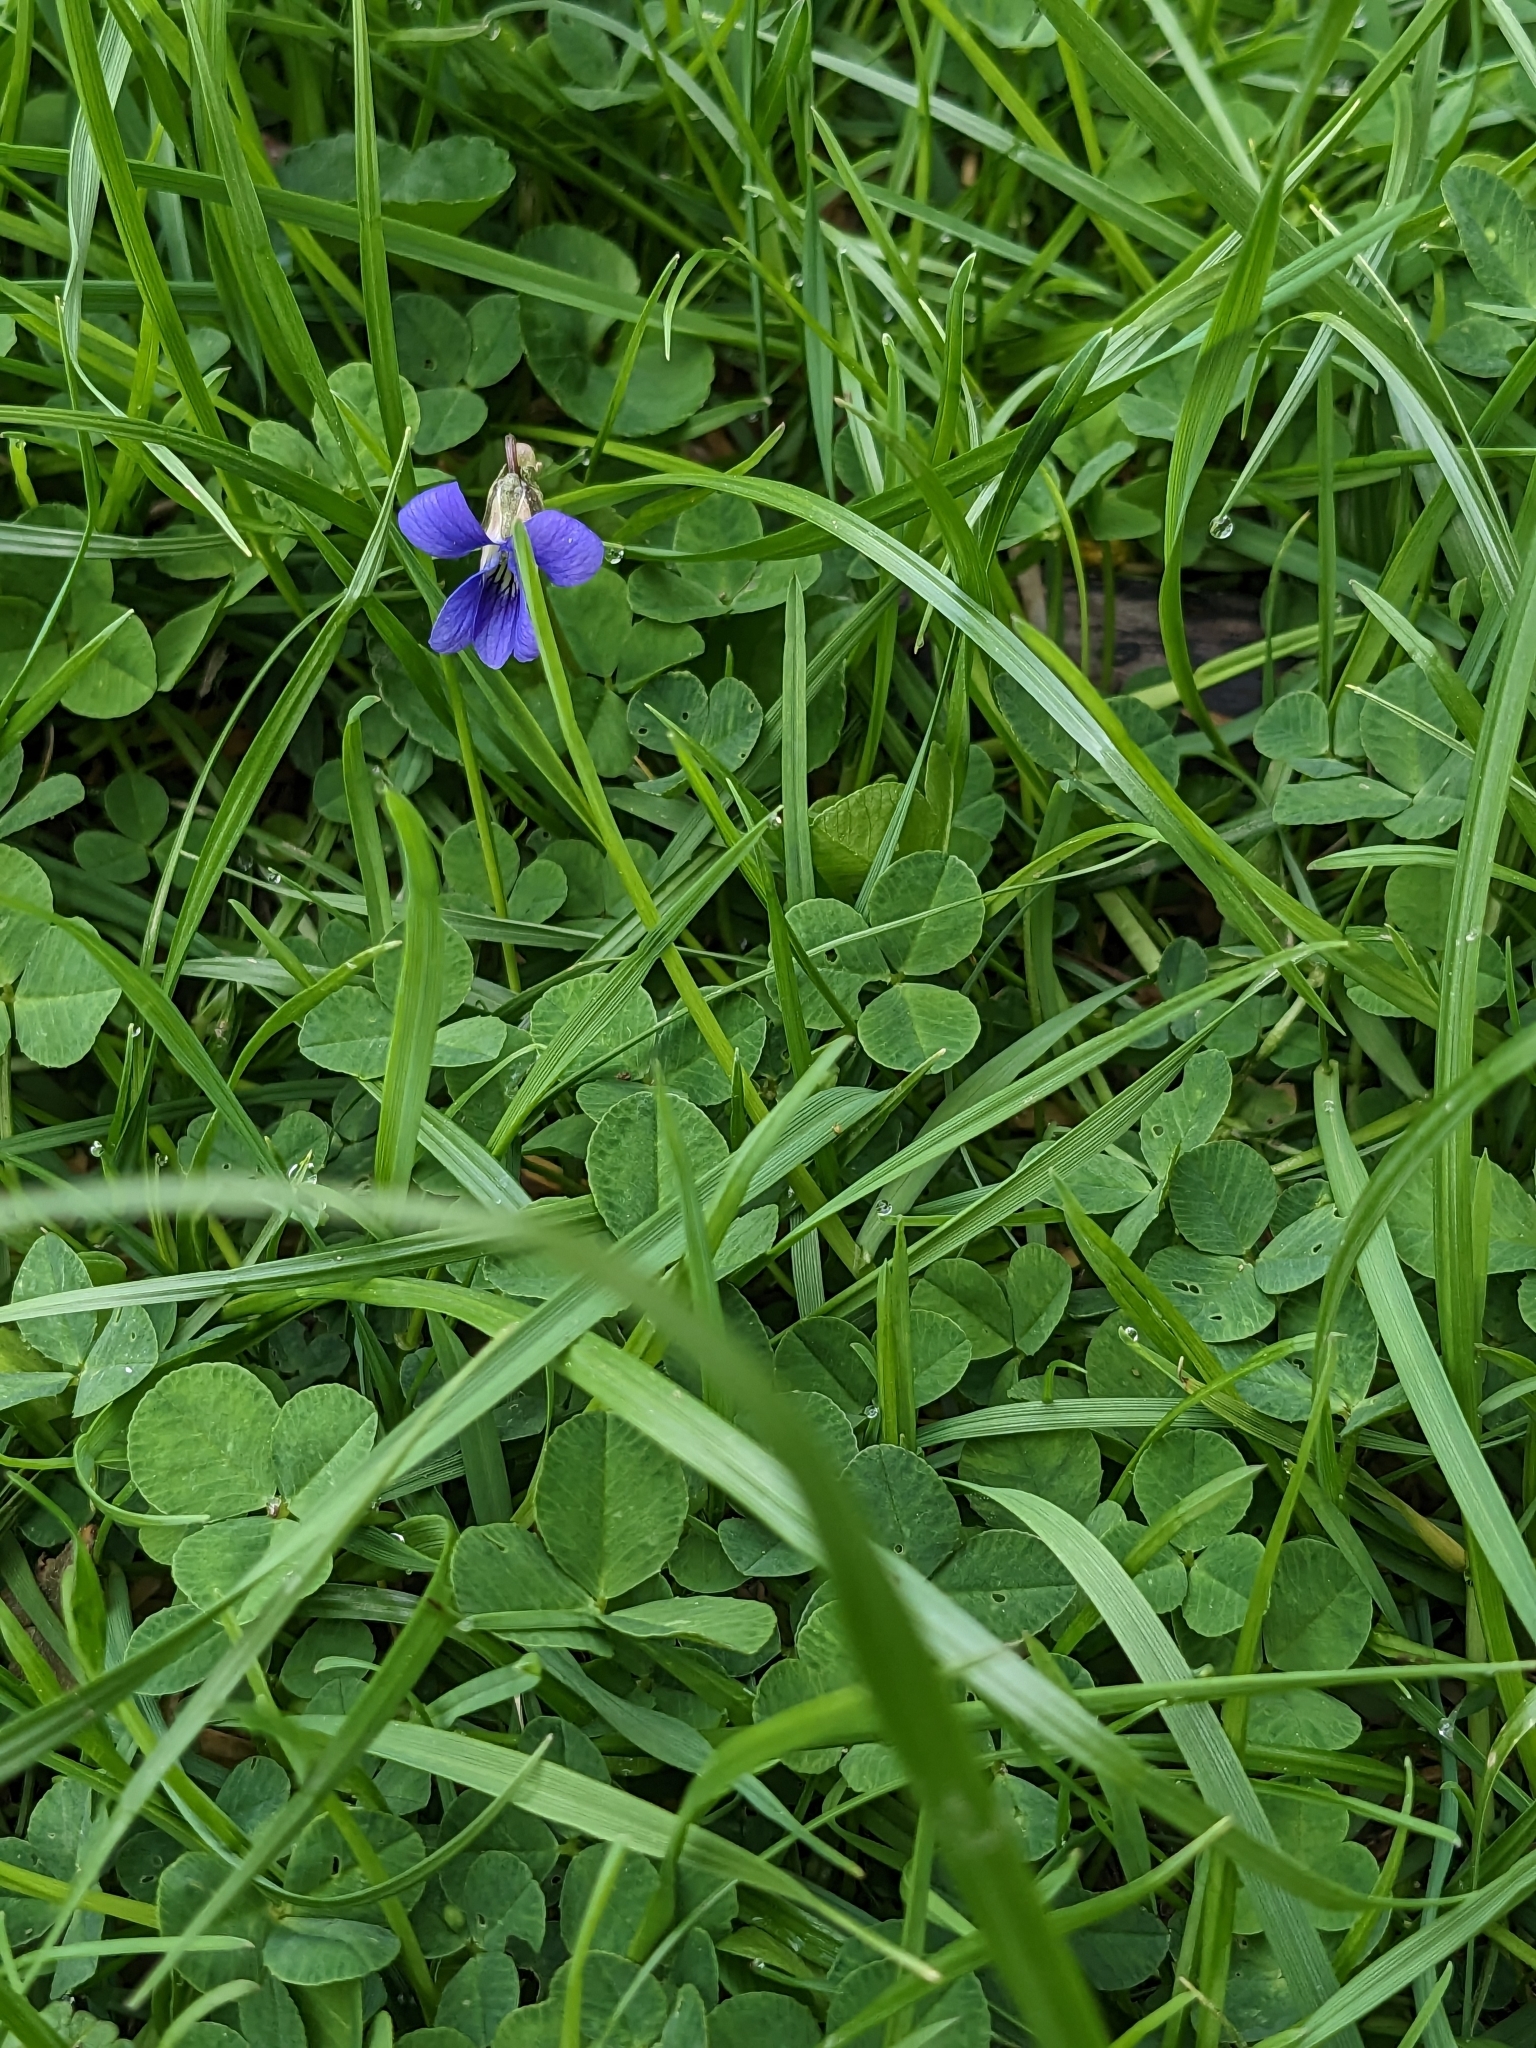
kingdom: Plantae
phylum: Tracheophyta
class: Magnoliopsida
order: Fabales
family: Fabaceae
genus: Trifolium
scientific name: Trifolium repens
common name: White clover
